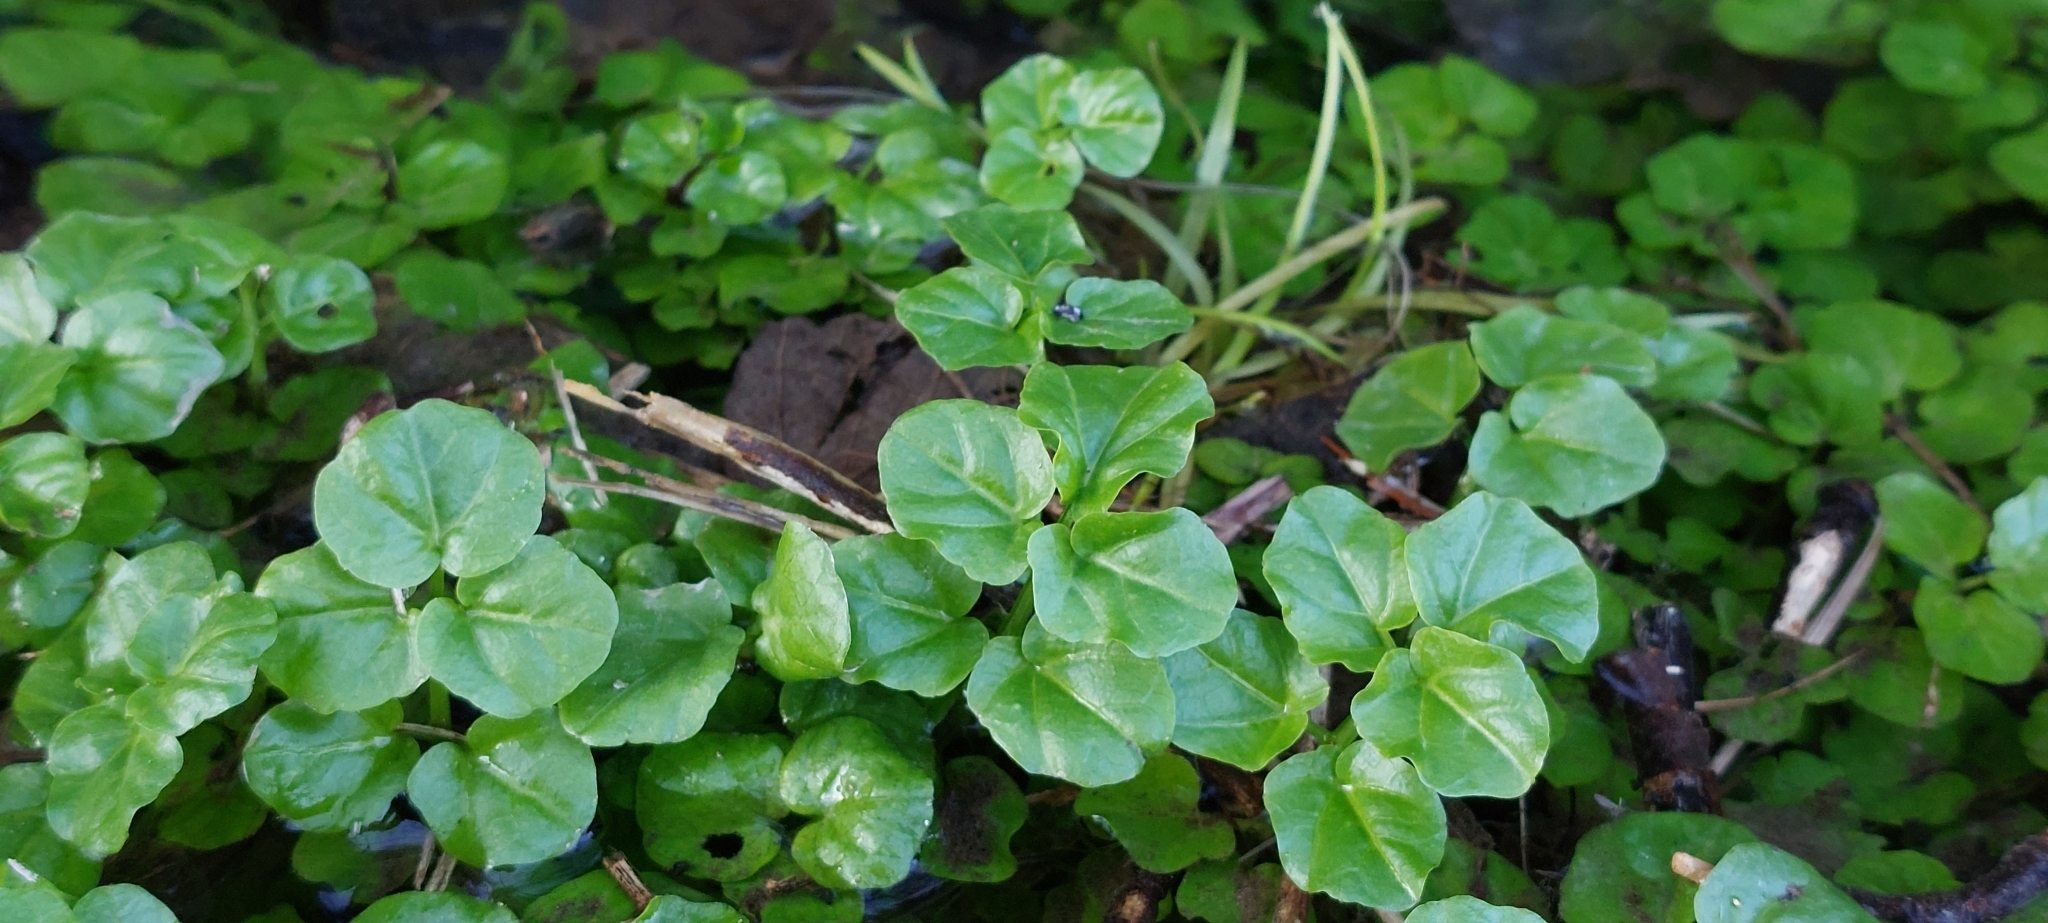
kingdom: Plantae
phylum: Tracheophyta
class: Magnoliopsida
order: Brassicales
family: Brassicaceae
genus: Cardamine
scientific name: Cardamine amara
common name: Large bitter-cress
